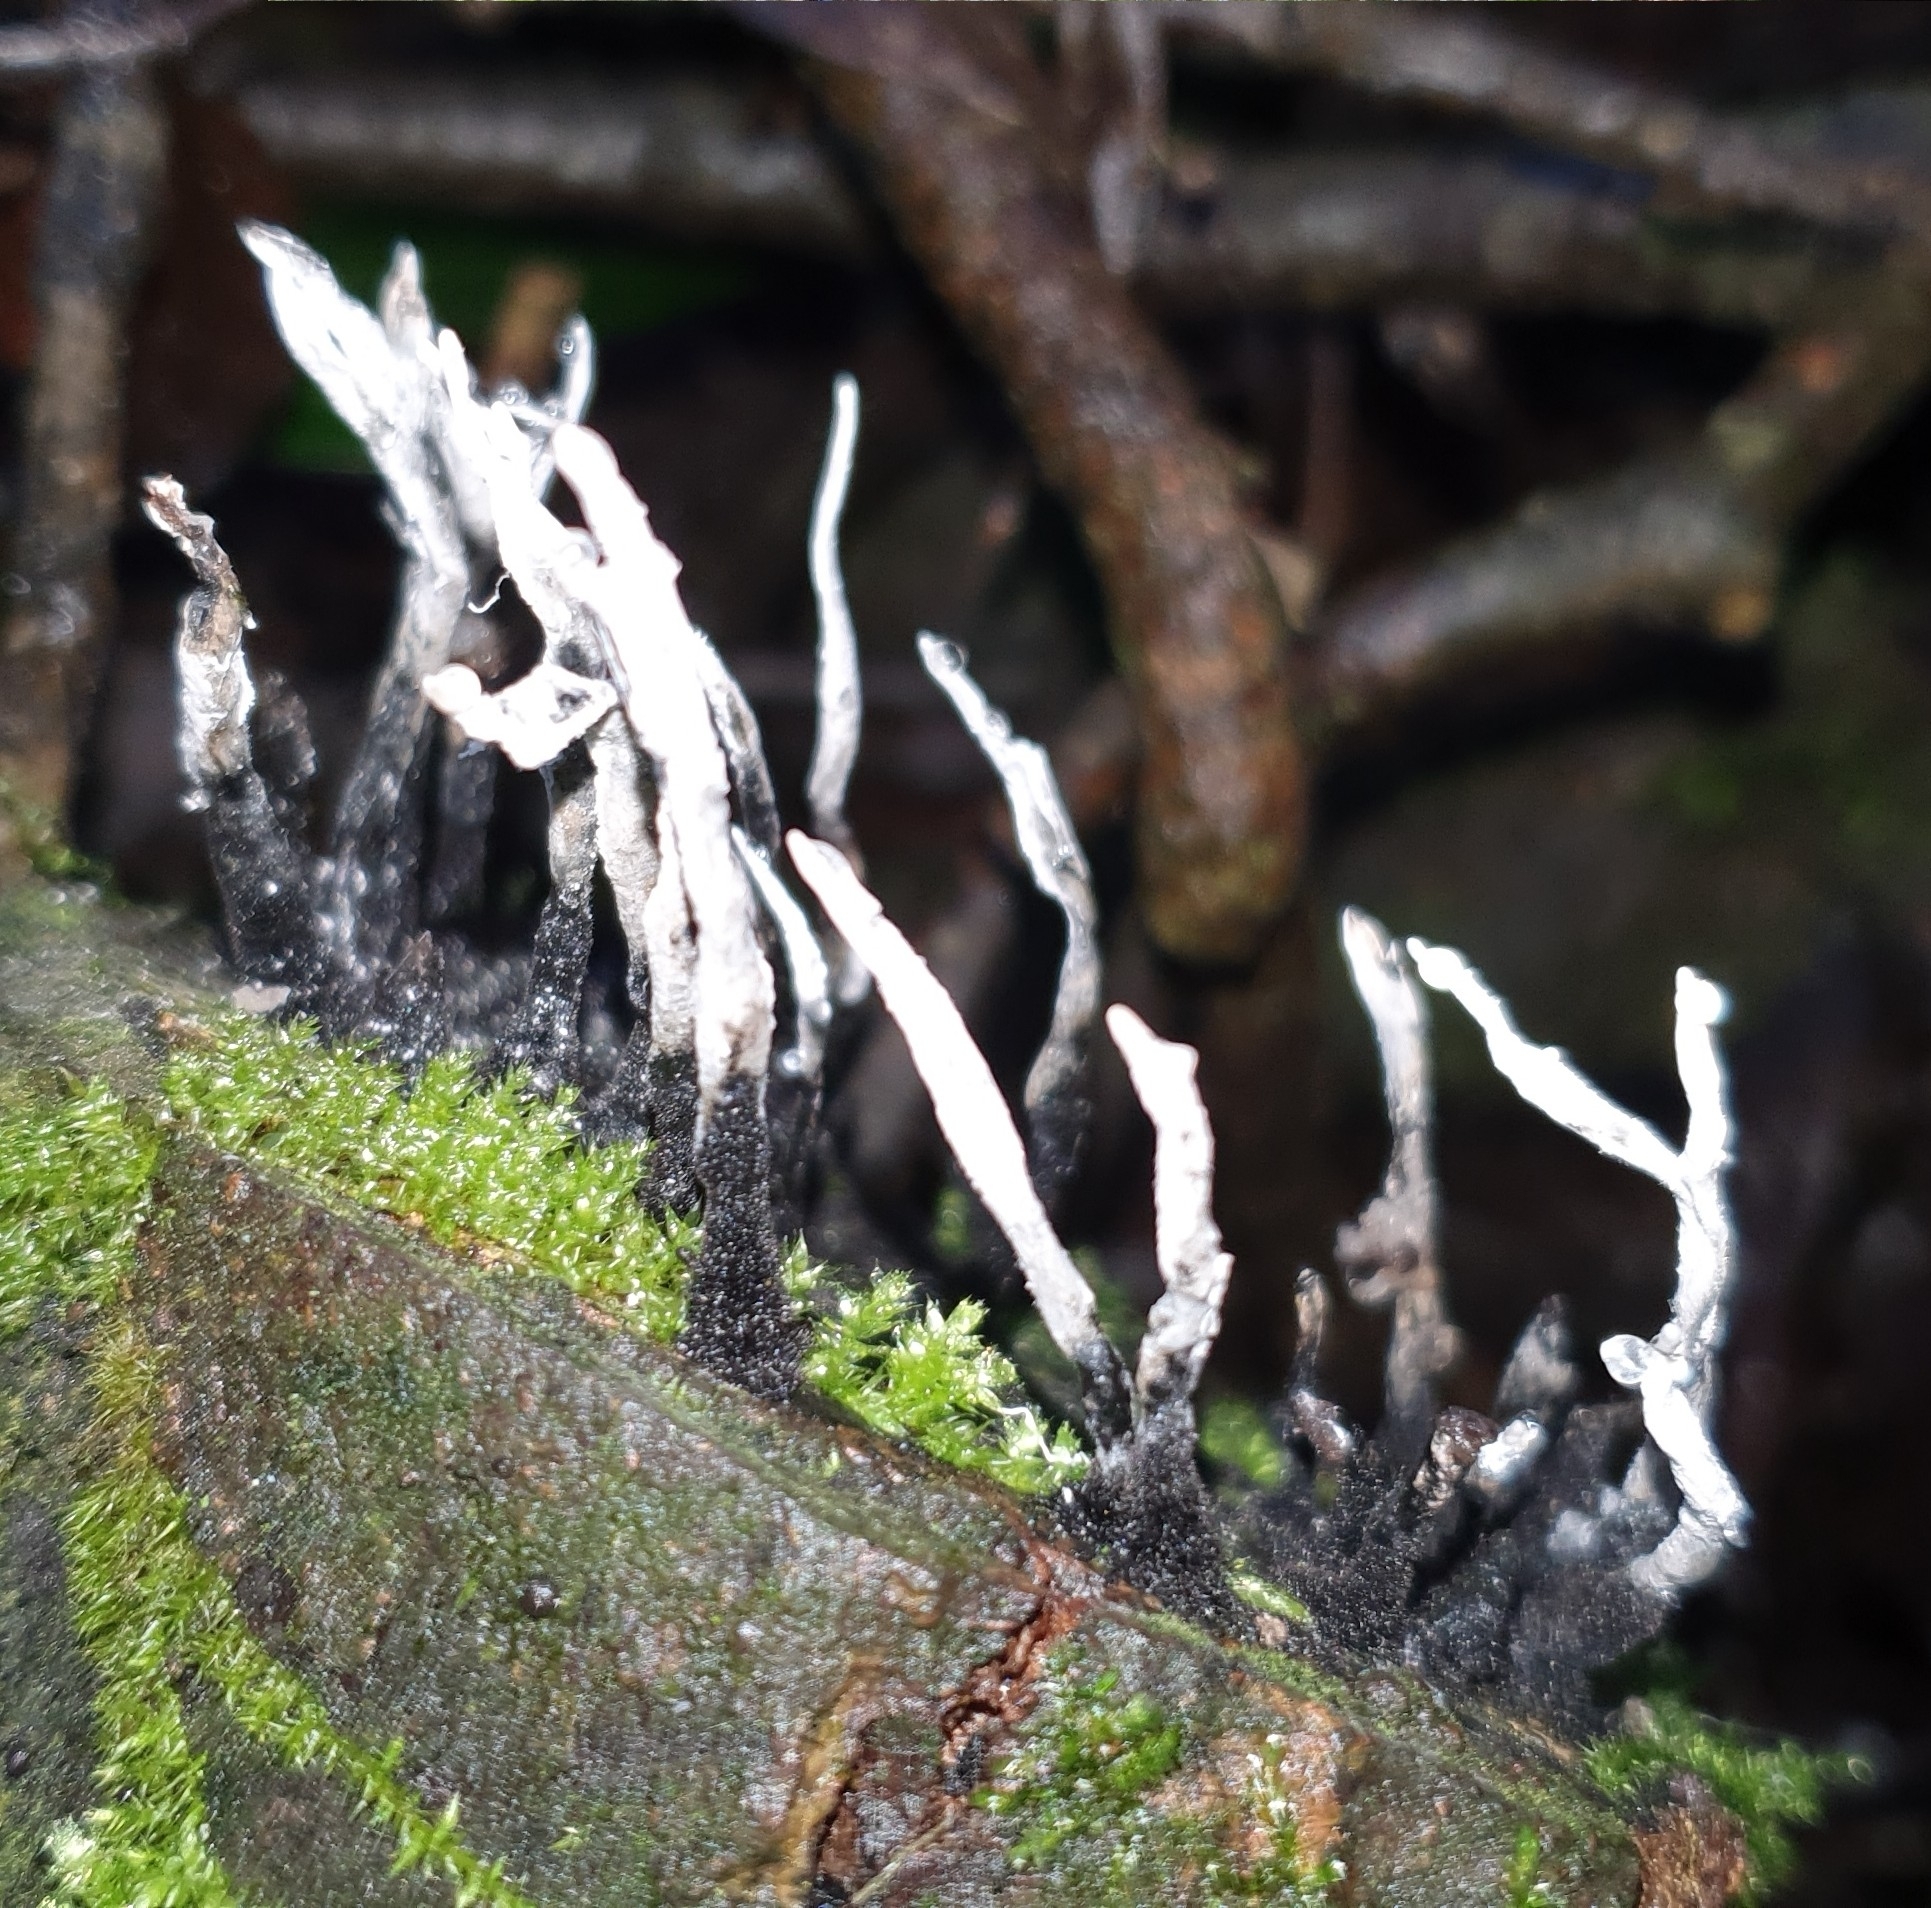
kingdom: Fungi
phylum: Ascomycota
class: Sordariomycetes
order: Xylariales
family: Xylariaceae
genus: Xylaria
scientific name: Xylaria hypoxylon
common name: Candle-snuff fungus
